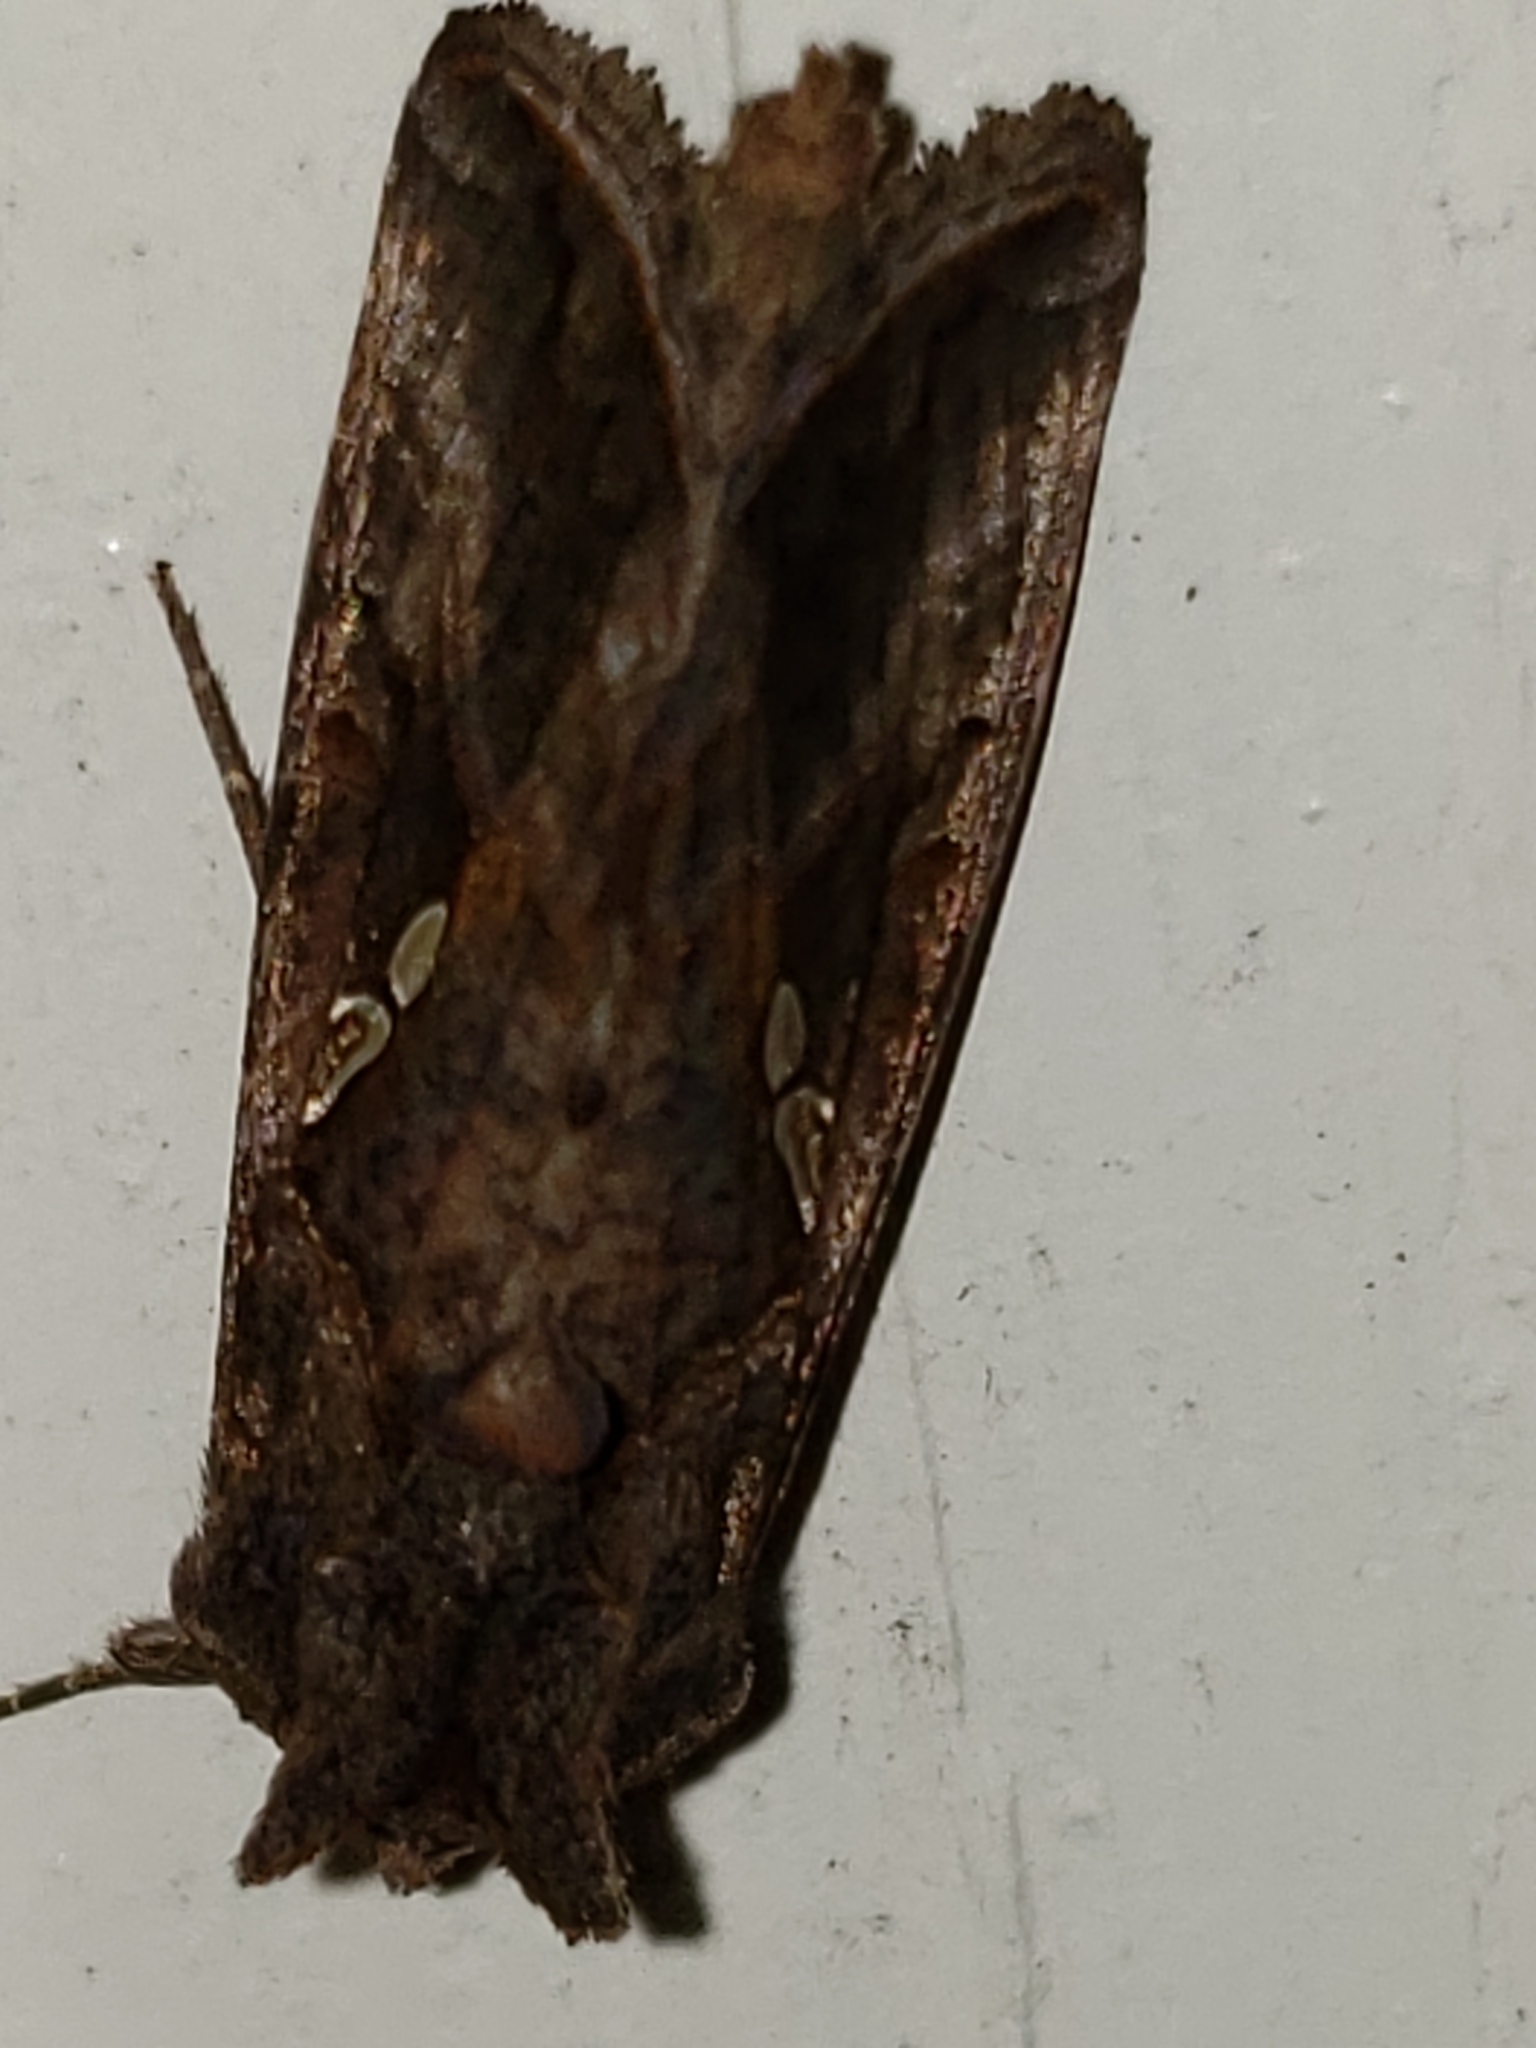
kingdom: Animalia
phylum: Arthropoda
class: Insecta
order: Lepidoptera
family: Noctuidae
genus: Autographa
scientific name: Autographa precationis
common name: Common looper moth
